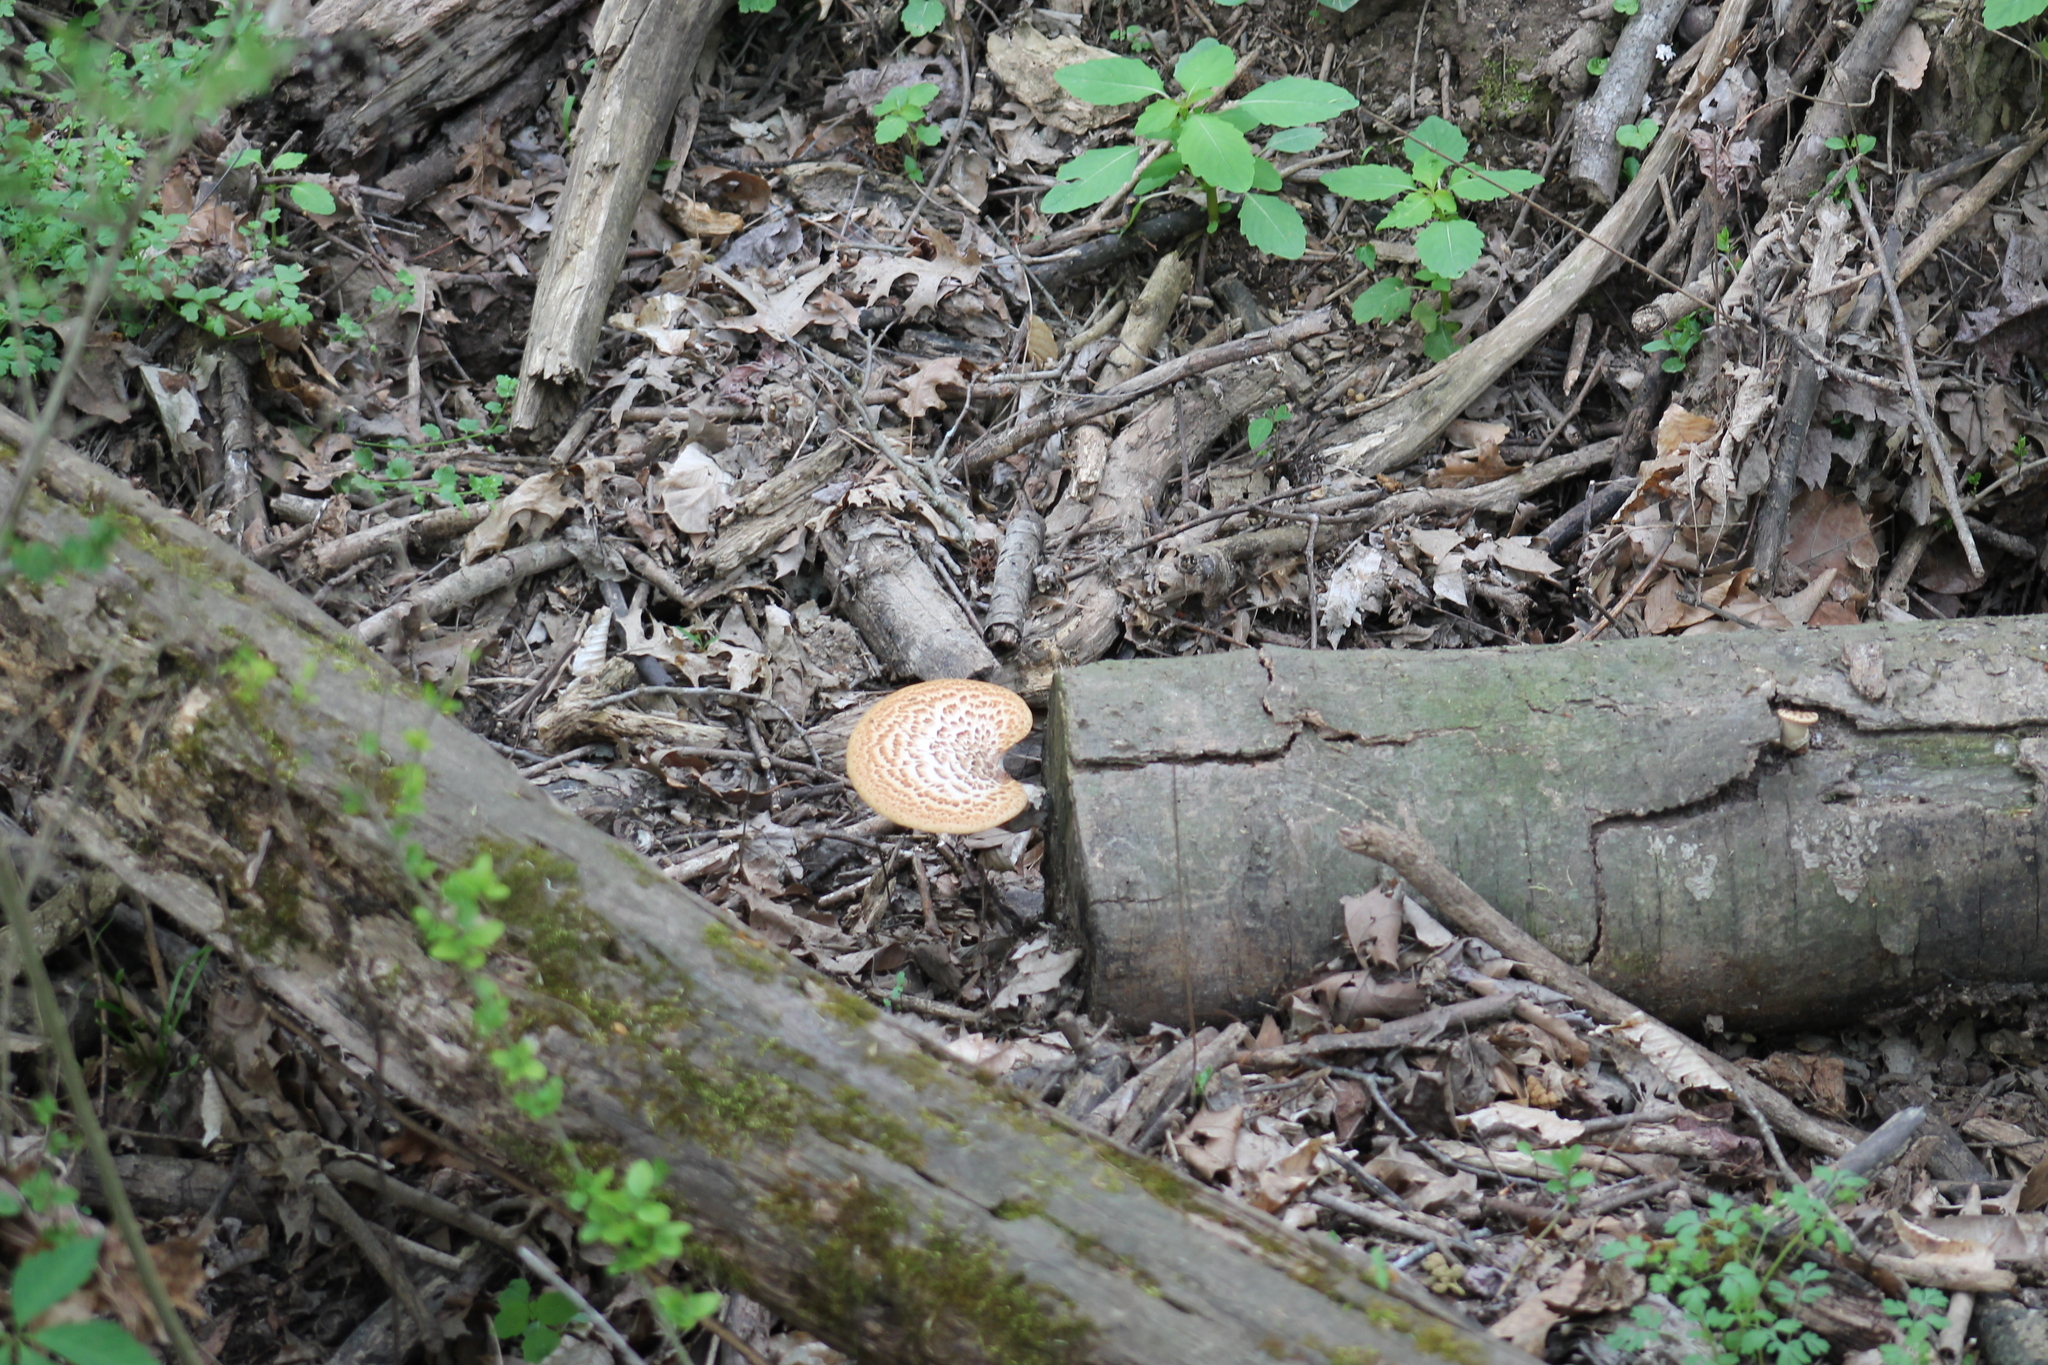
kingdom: Fungi
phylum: Basidiomycota
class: Agaricomycetes
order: Polyporales
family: Polyporaceae
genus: Cerioporus
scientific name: Cerioporus squamosus
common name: Dryad's saddle
